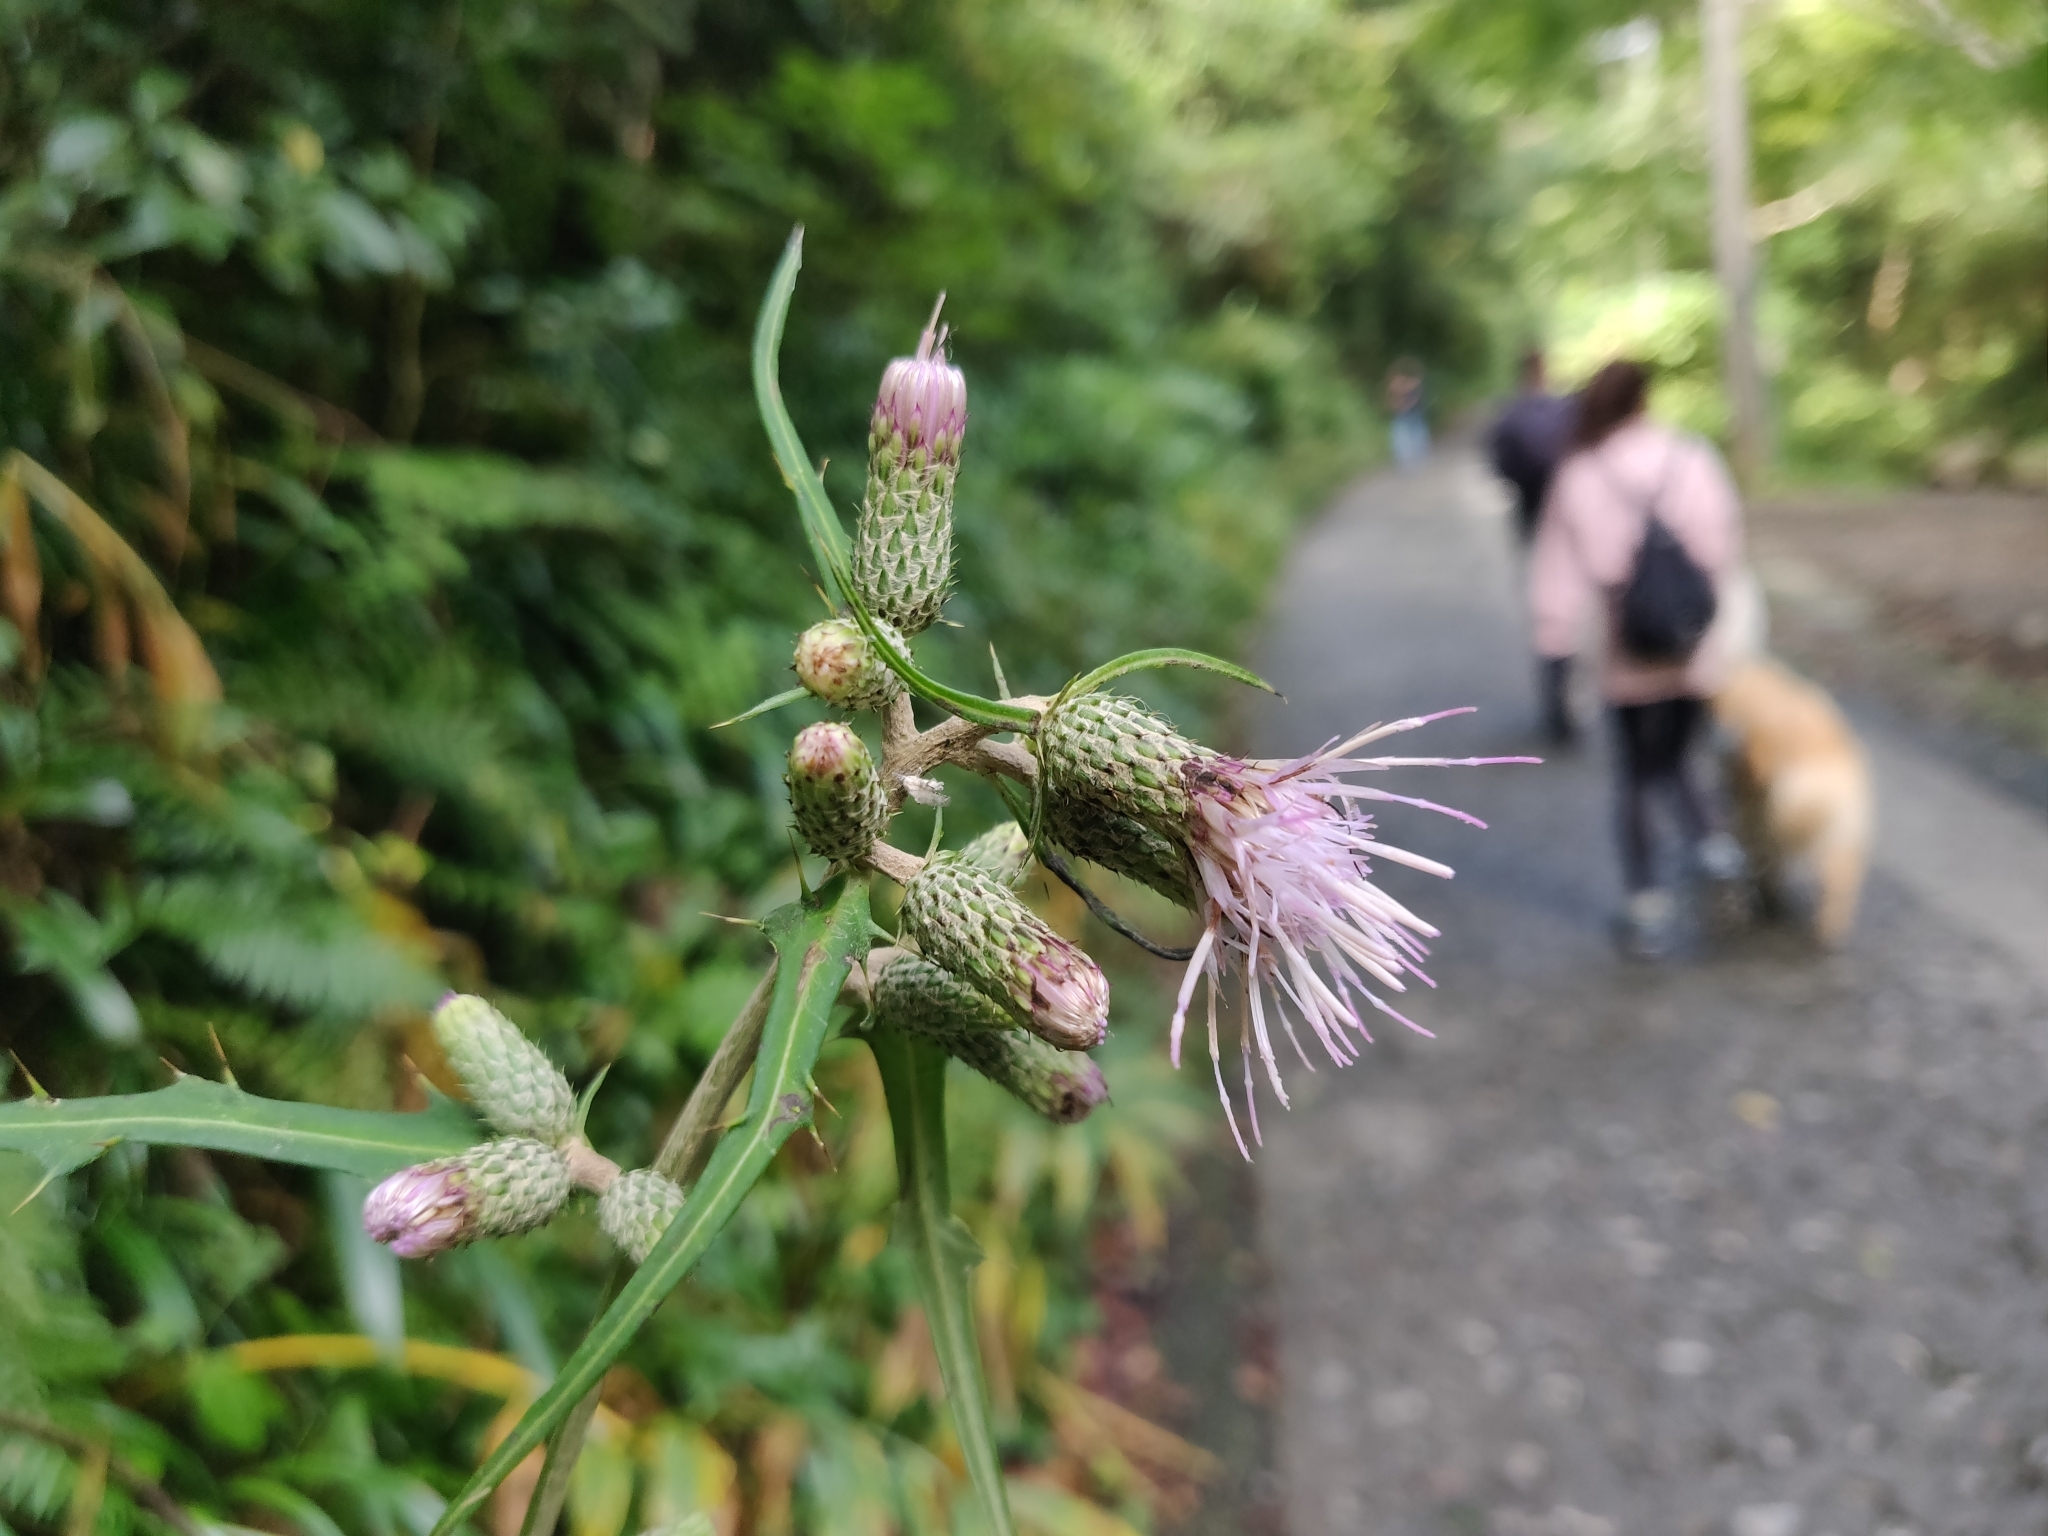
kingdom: Plantae
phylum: Tracheophyta
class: Magnoliopsida
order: Asterales
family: Asteraceae
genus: Cirsium
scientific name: Cirsium microspicatum
